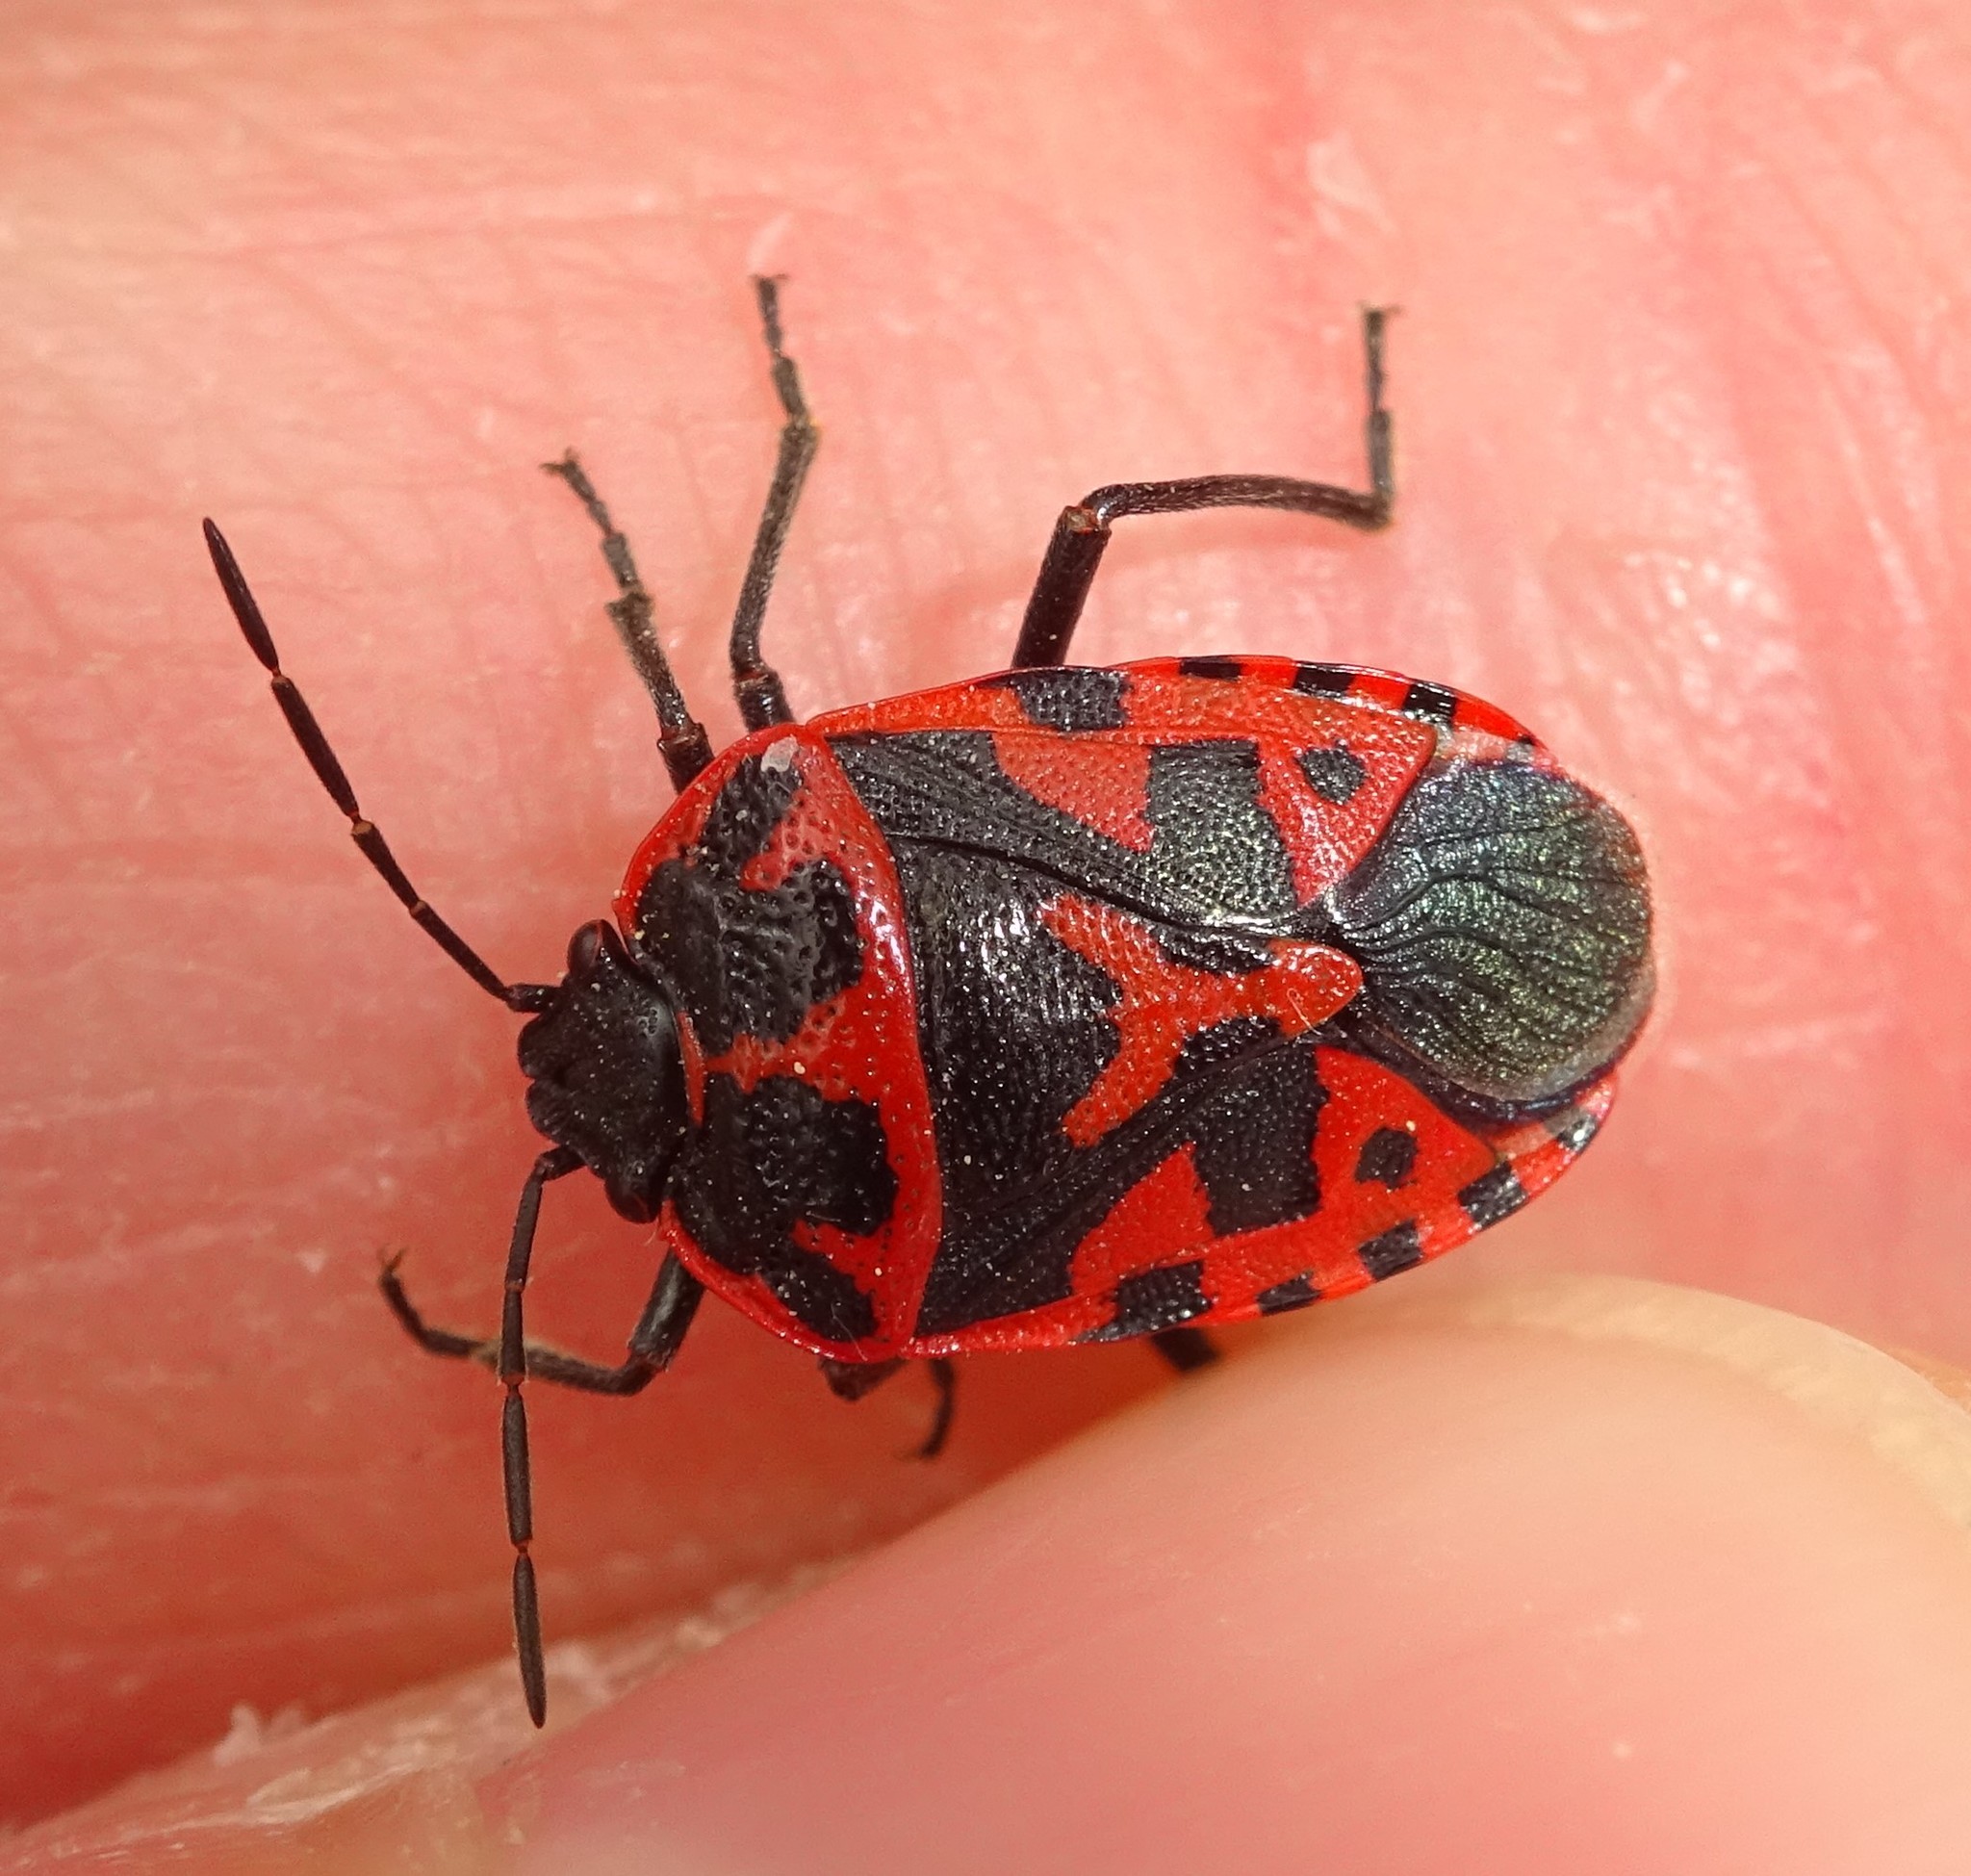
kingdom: Animalia
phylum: Arthropoda
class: Insecta
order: Hemiptera
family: Pentatomidae
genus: Eurydema
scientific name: Eurydema ventralis
